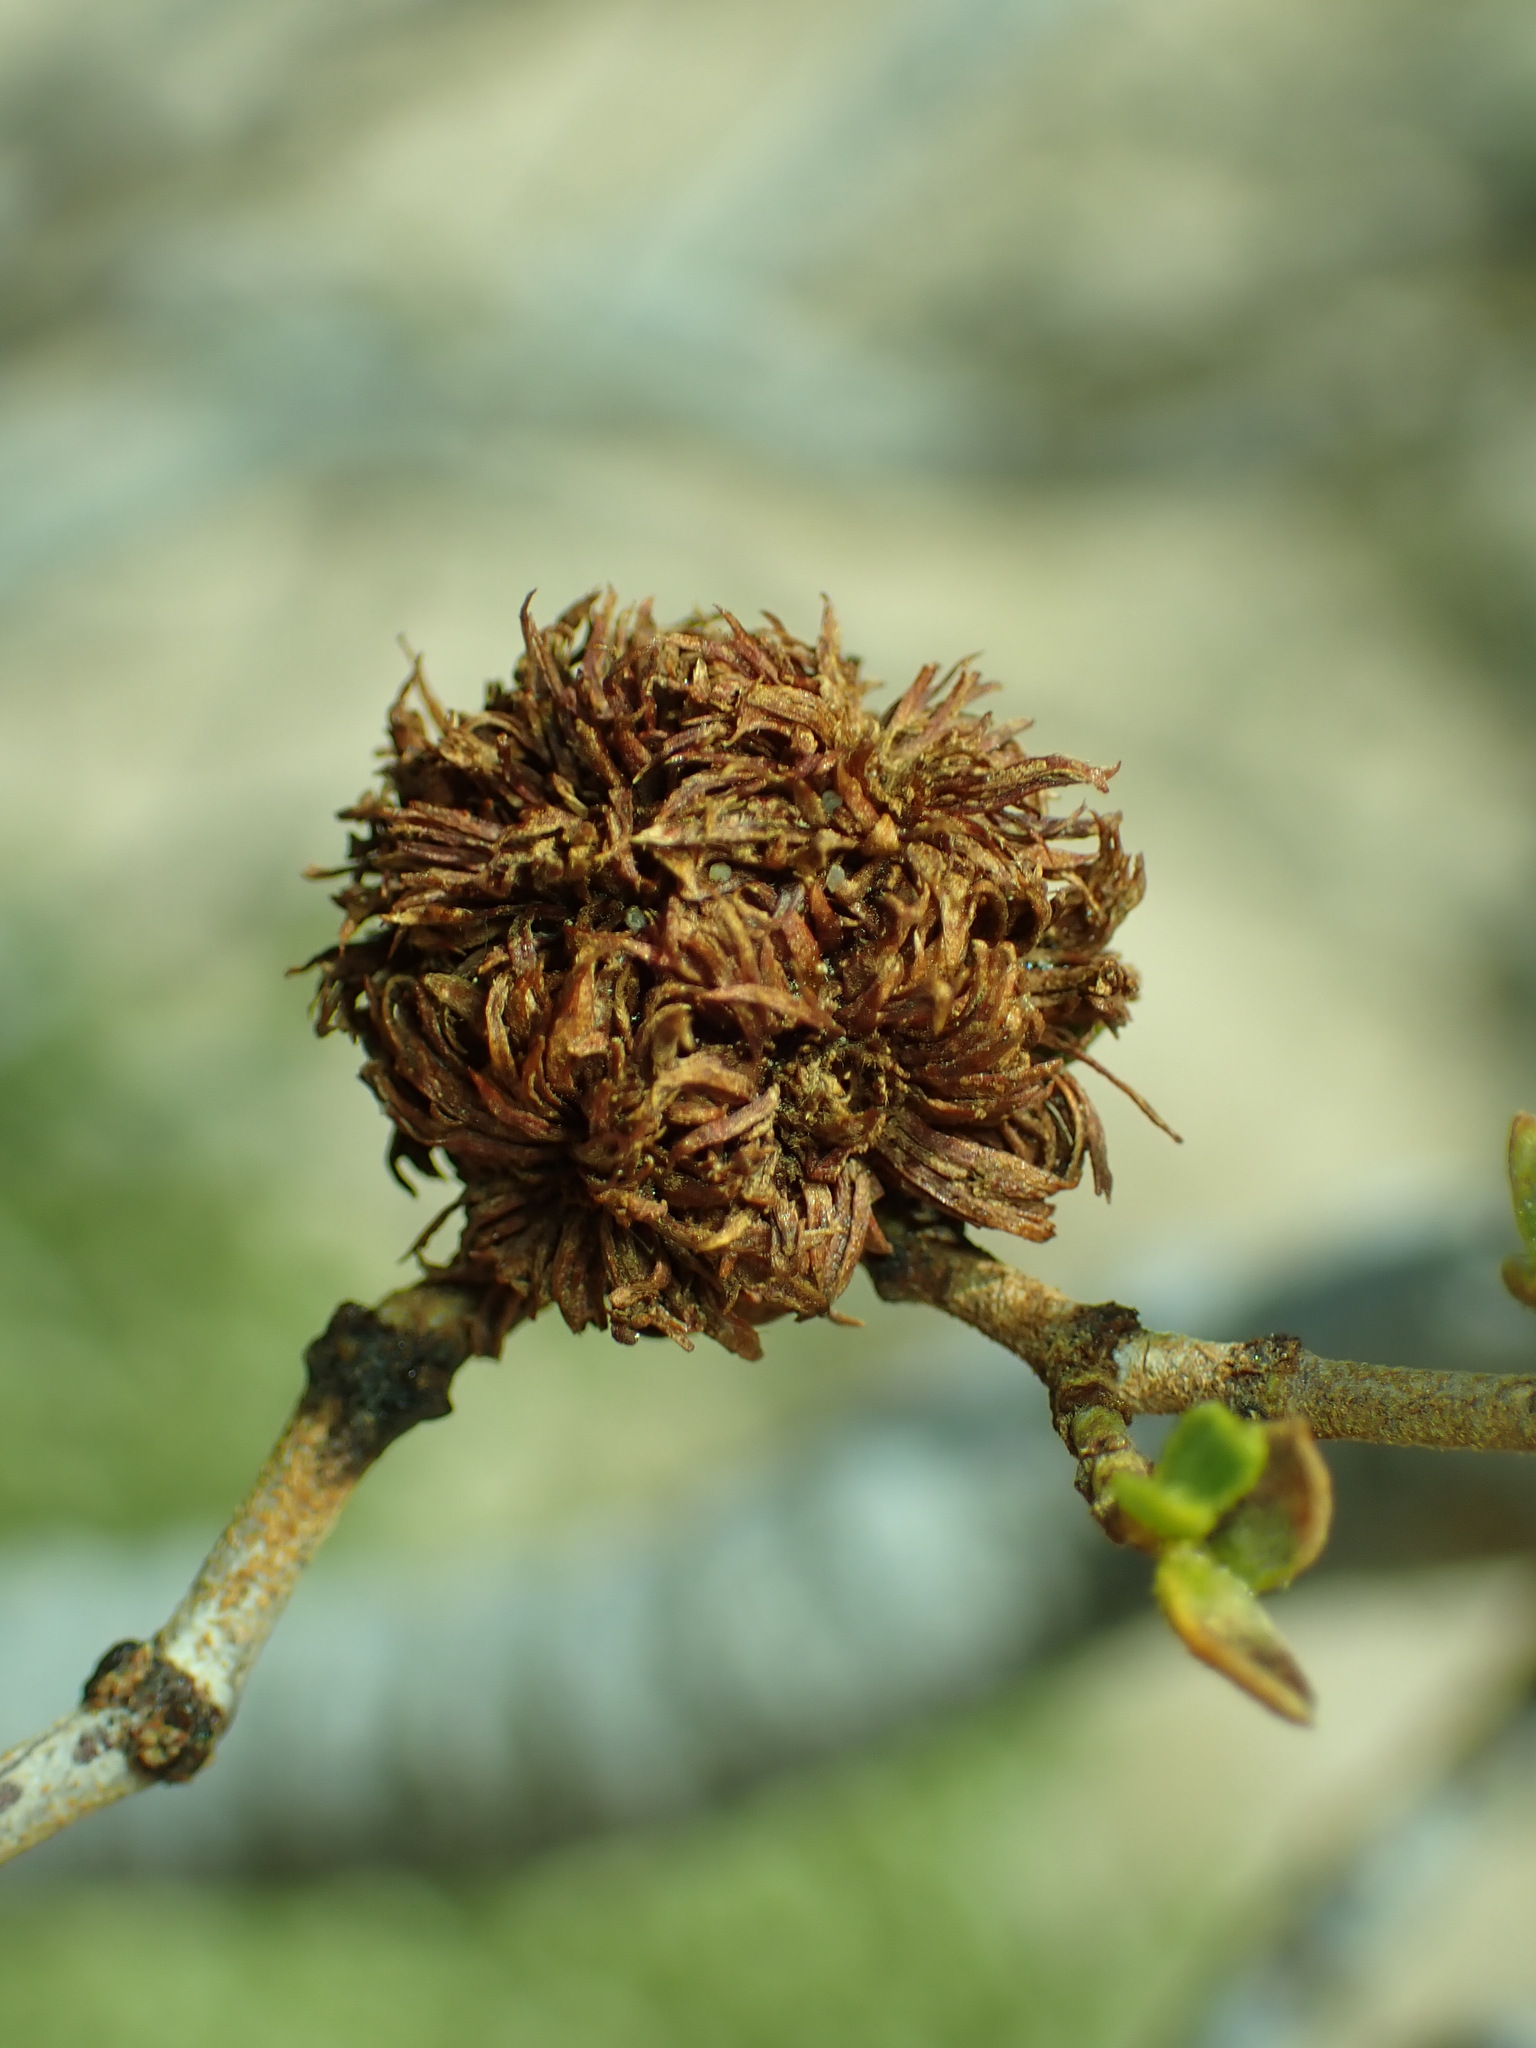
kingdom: Animalia
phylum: Arthropoda
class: Insecta
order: Diptera
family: Cecidomyiidae
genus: Asphondylia
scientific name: Asphondylia auripila
